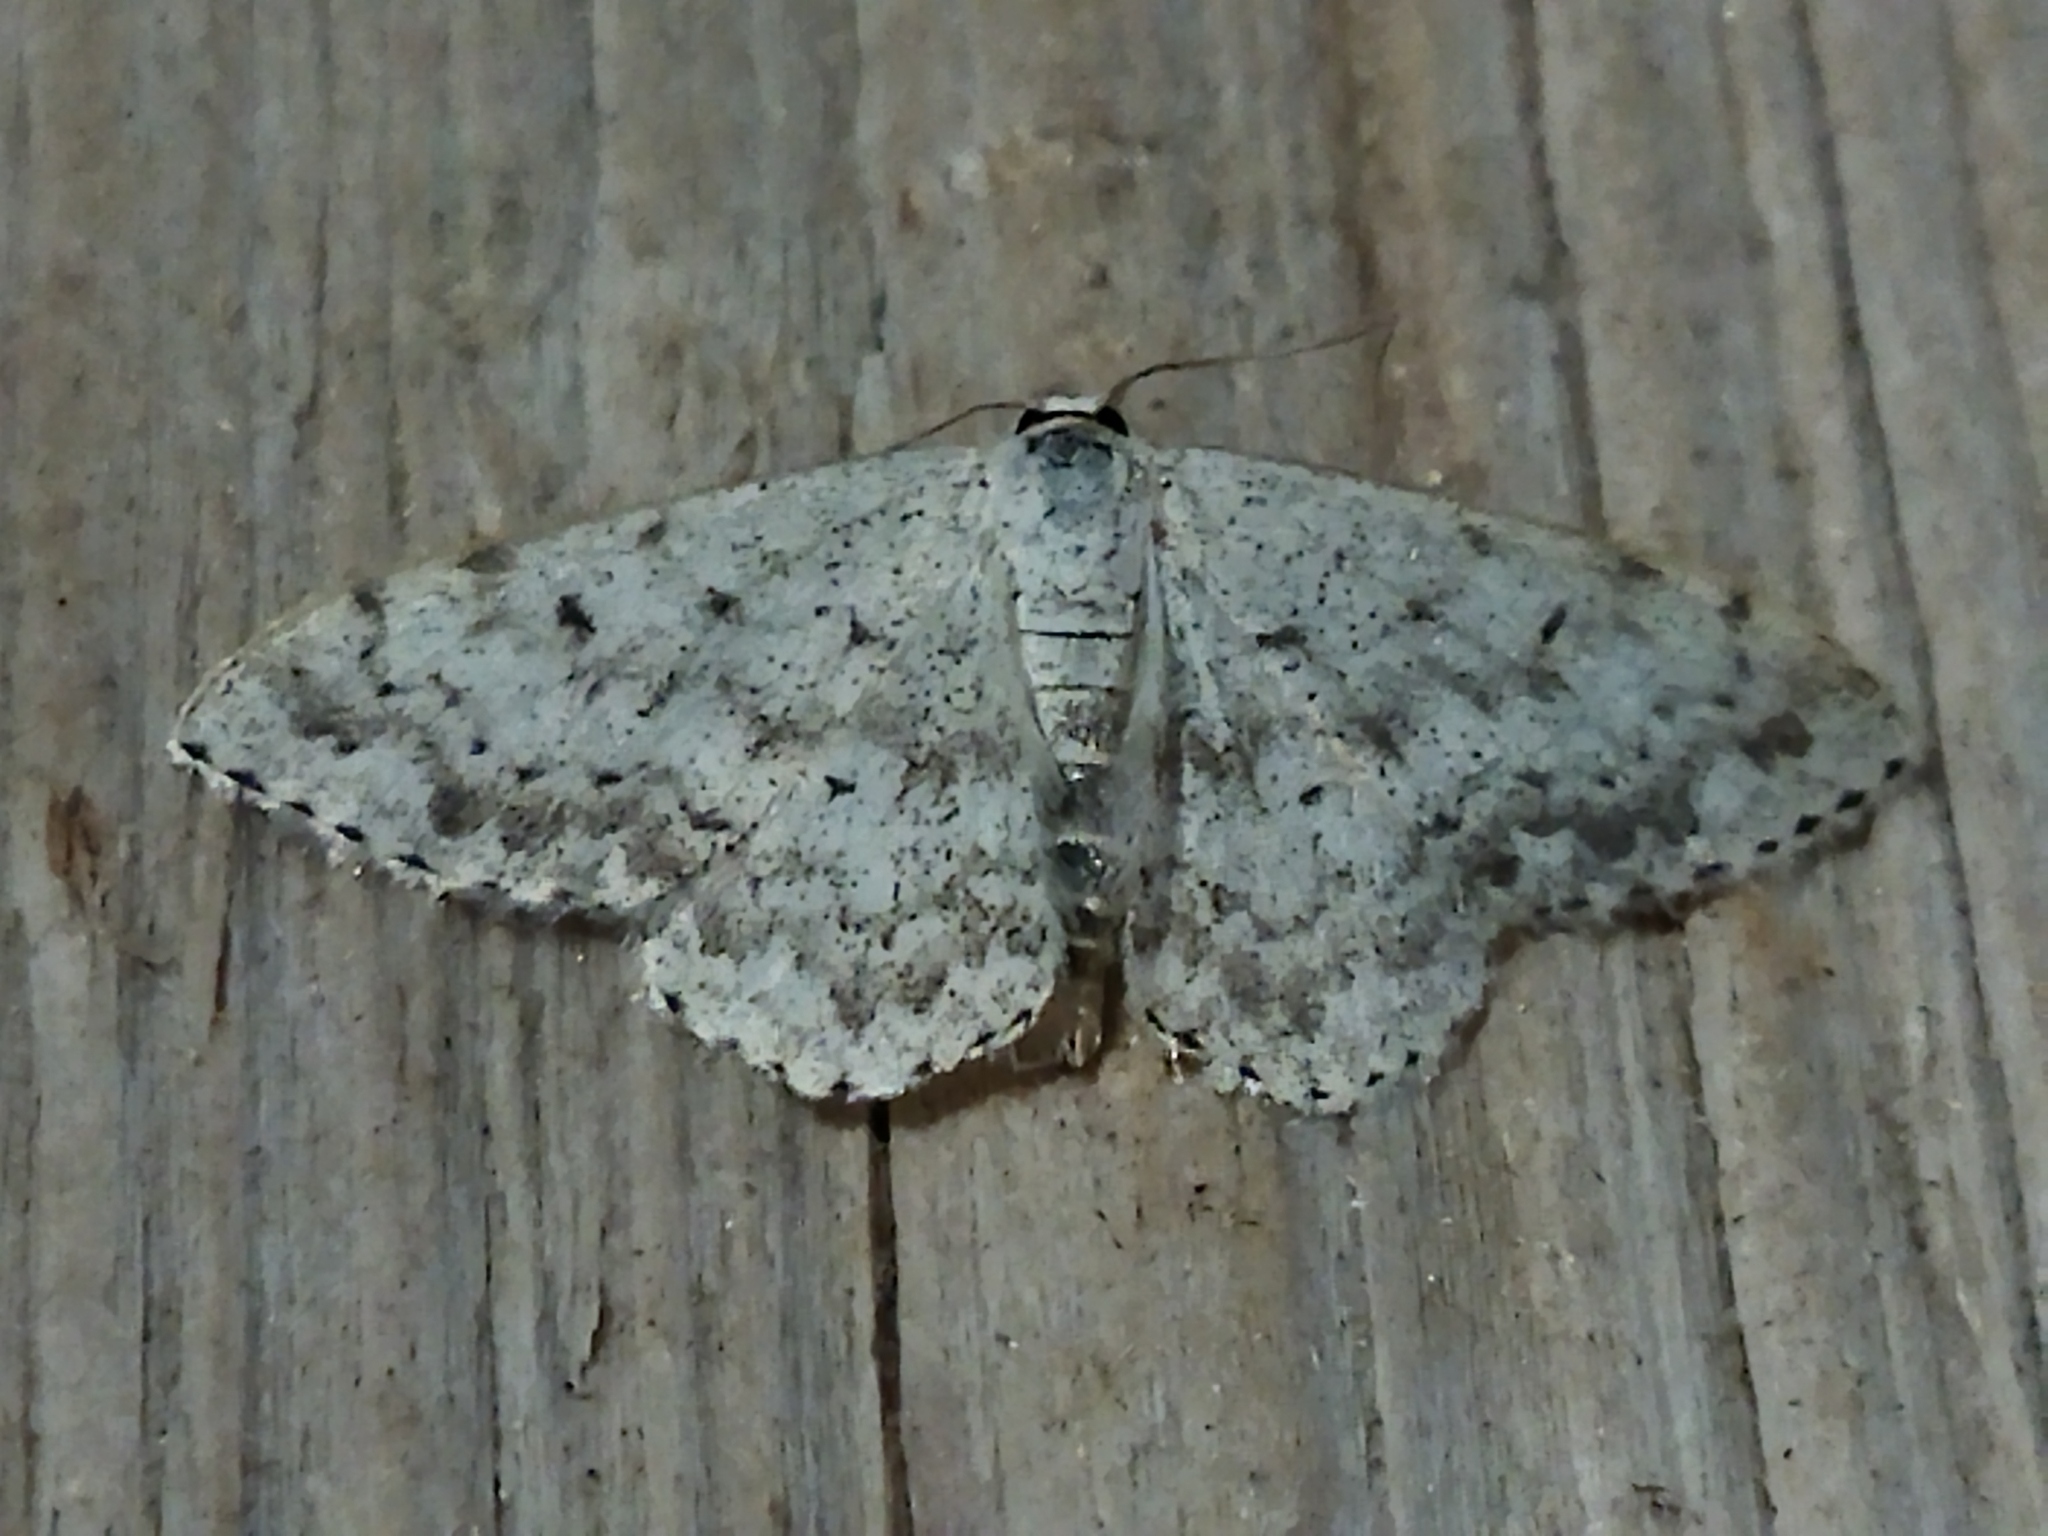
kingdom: Animalia
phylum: Arthropoda
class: Insecta
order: Lepidoptera
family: Geometridae
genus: Scopula
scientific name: Scopula marginepunctata
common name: Mullein wave
